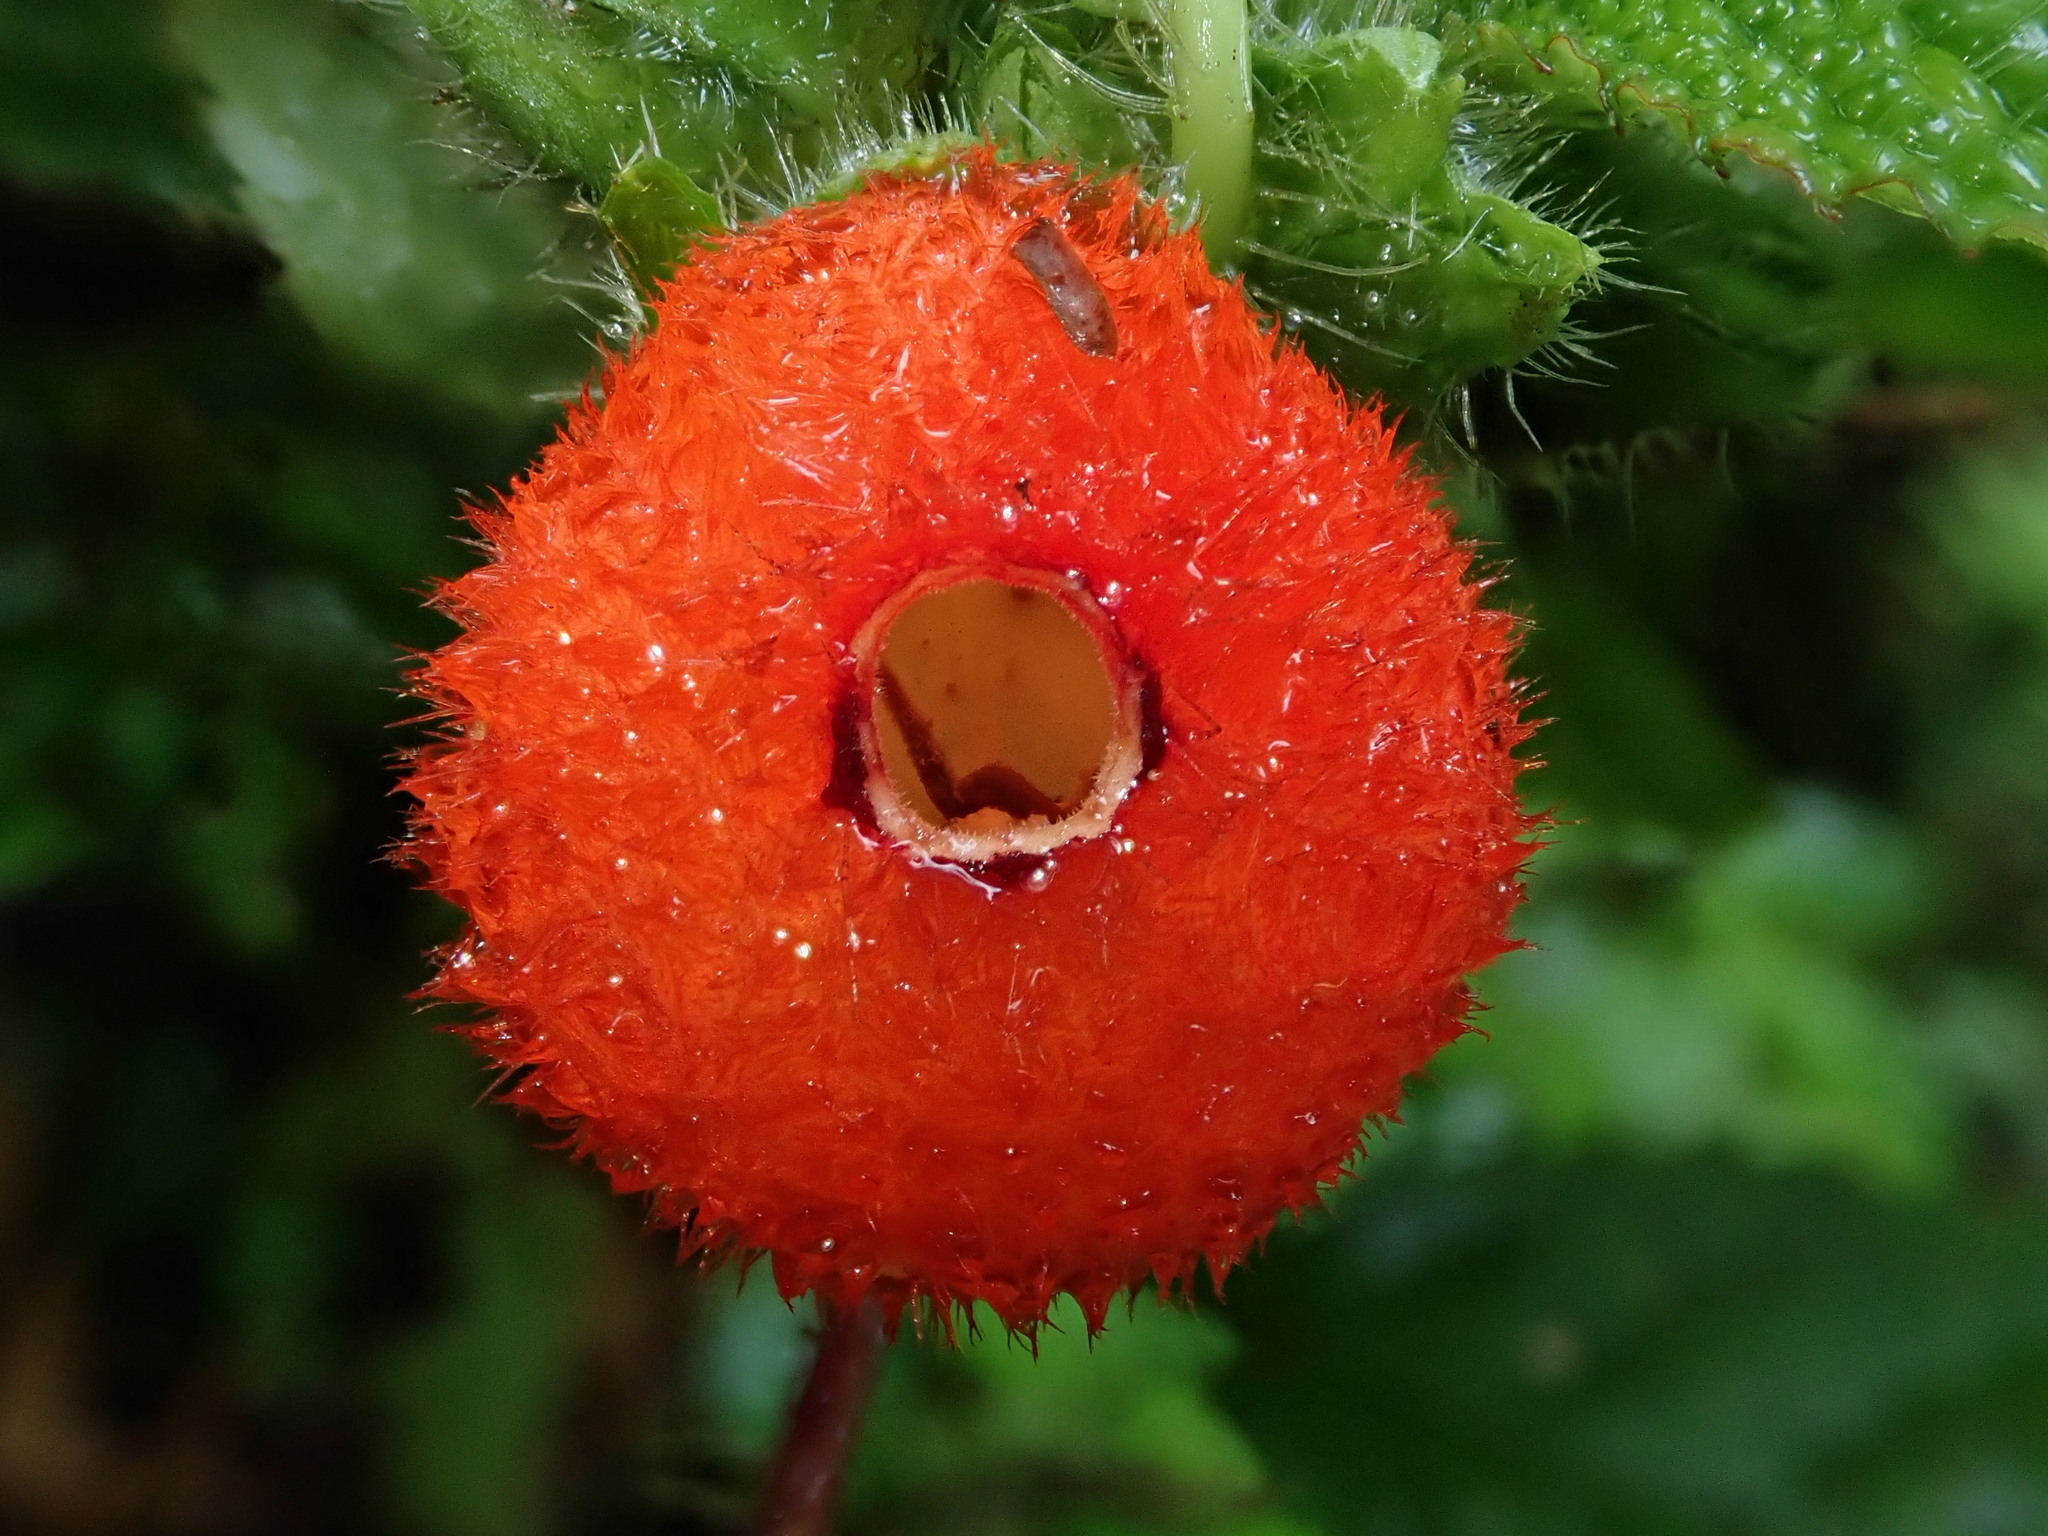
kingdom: Plantae
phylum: Tracheophyta
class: Magnoliopsida
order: Lamiales
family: Gesneriaceae
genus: Pearcea
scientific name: Pearcea schimpfii
